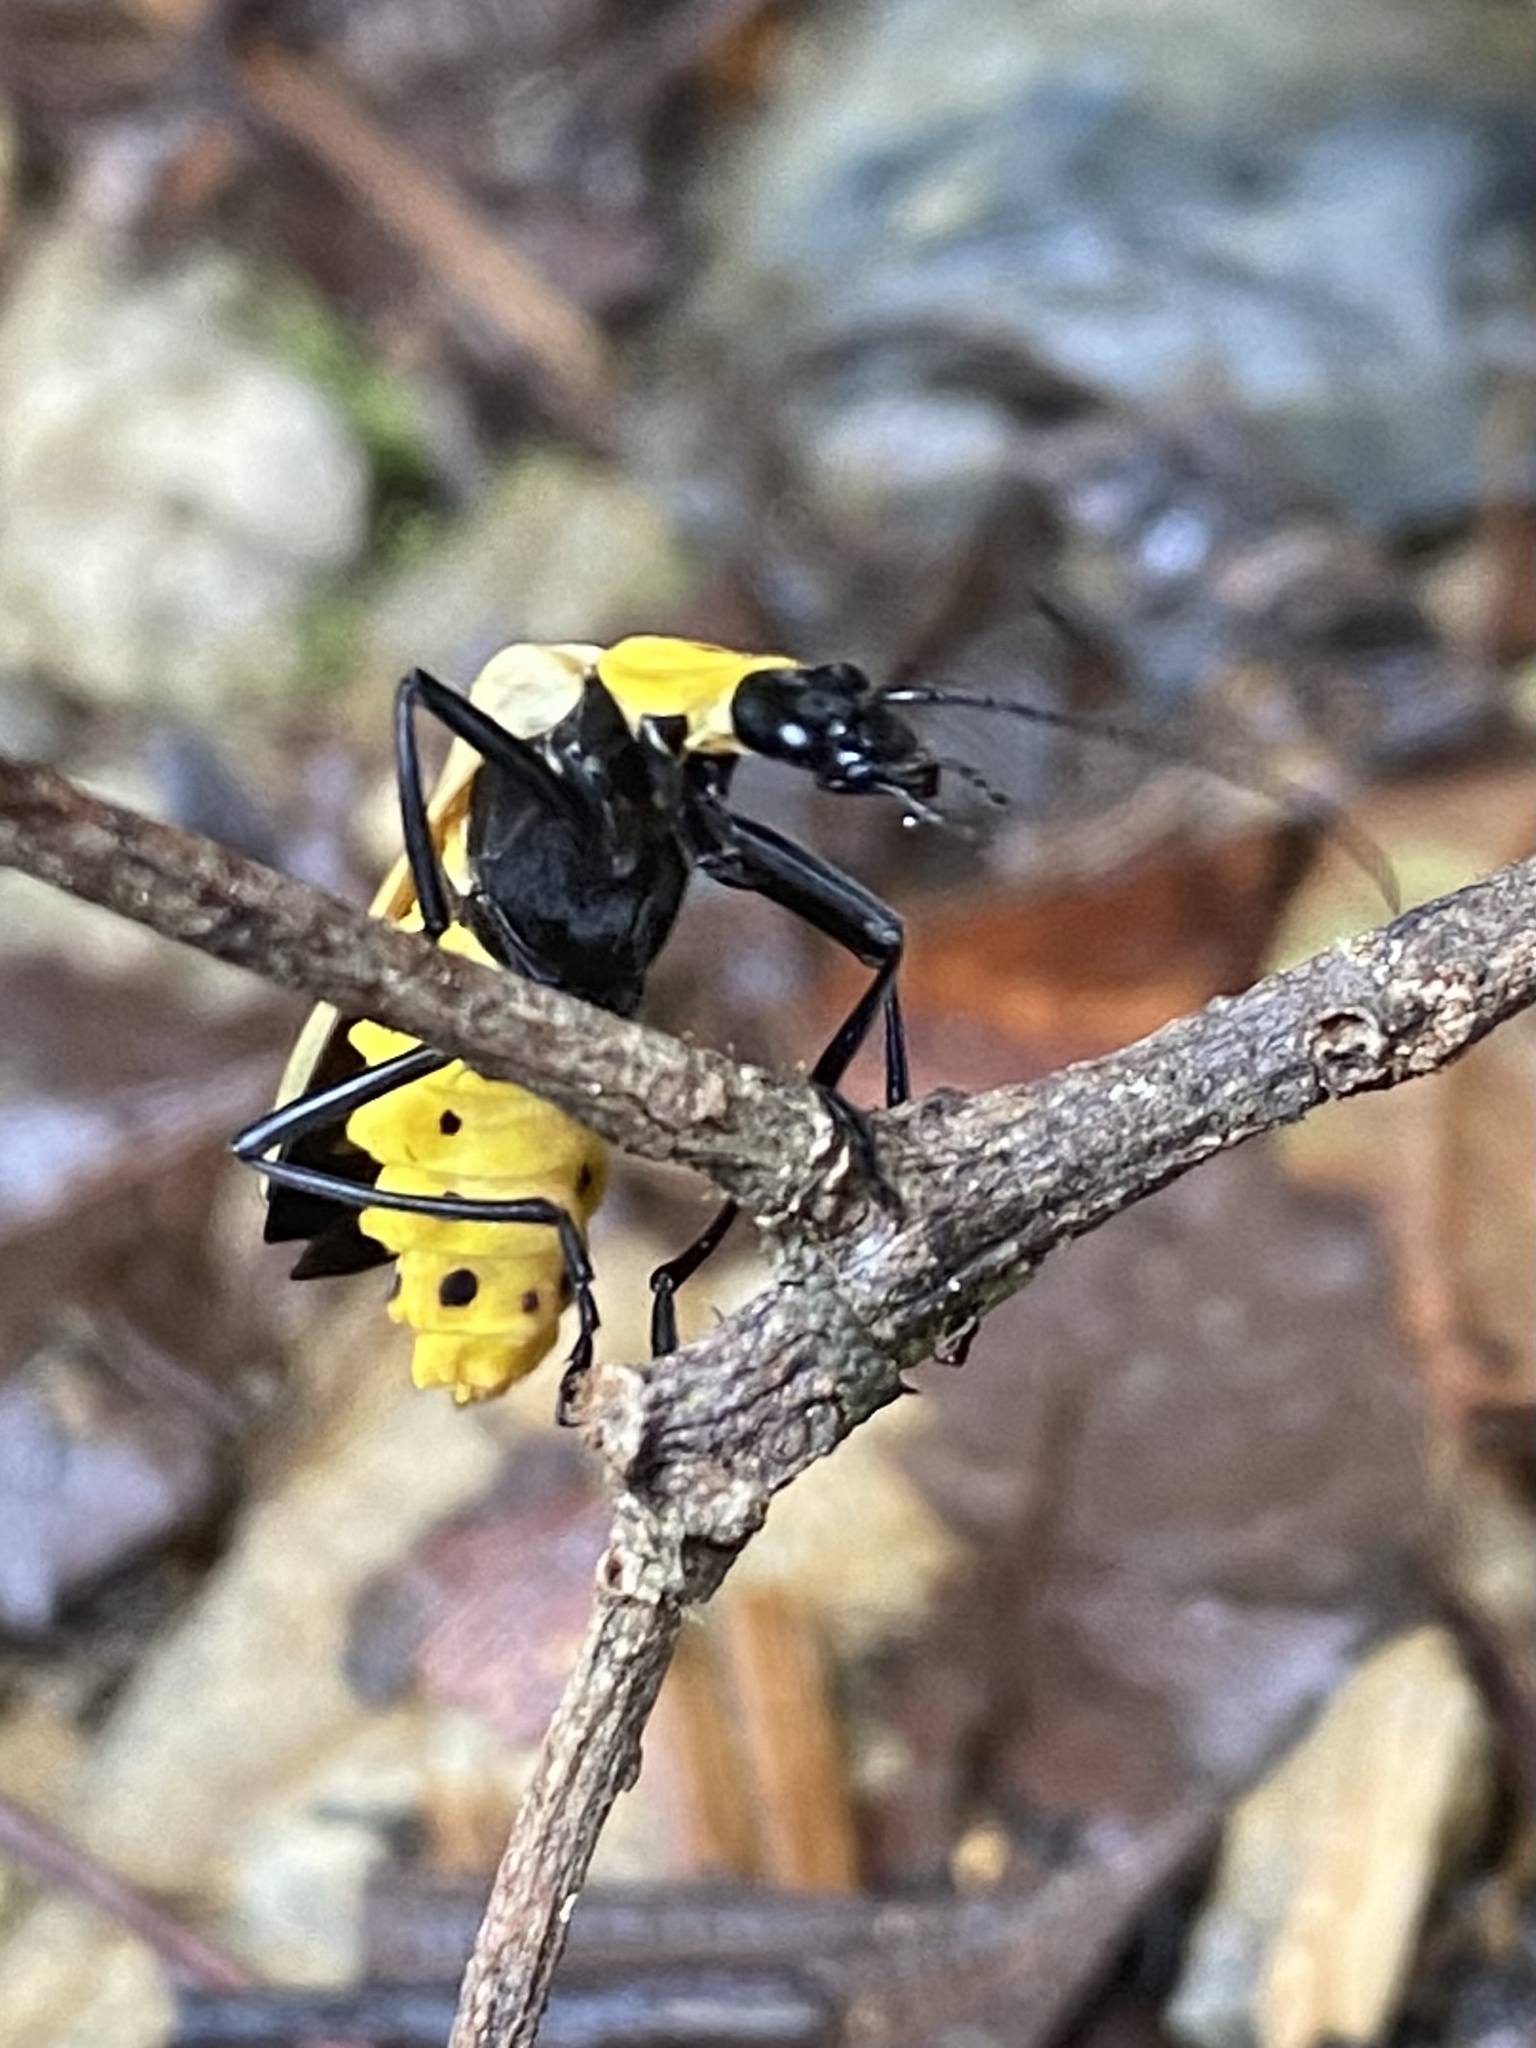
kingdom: Animalia
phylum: Arthropoda
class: Insecta
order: Coleoptera
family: Cantharidae
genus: Chauliognathus
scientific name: Chauliognathus
